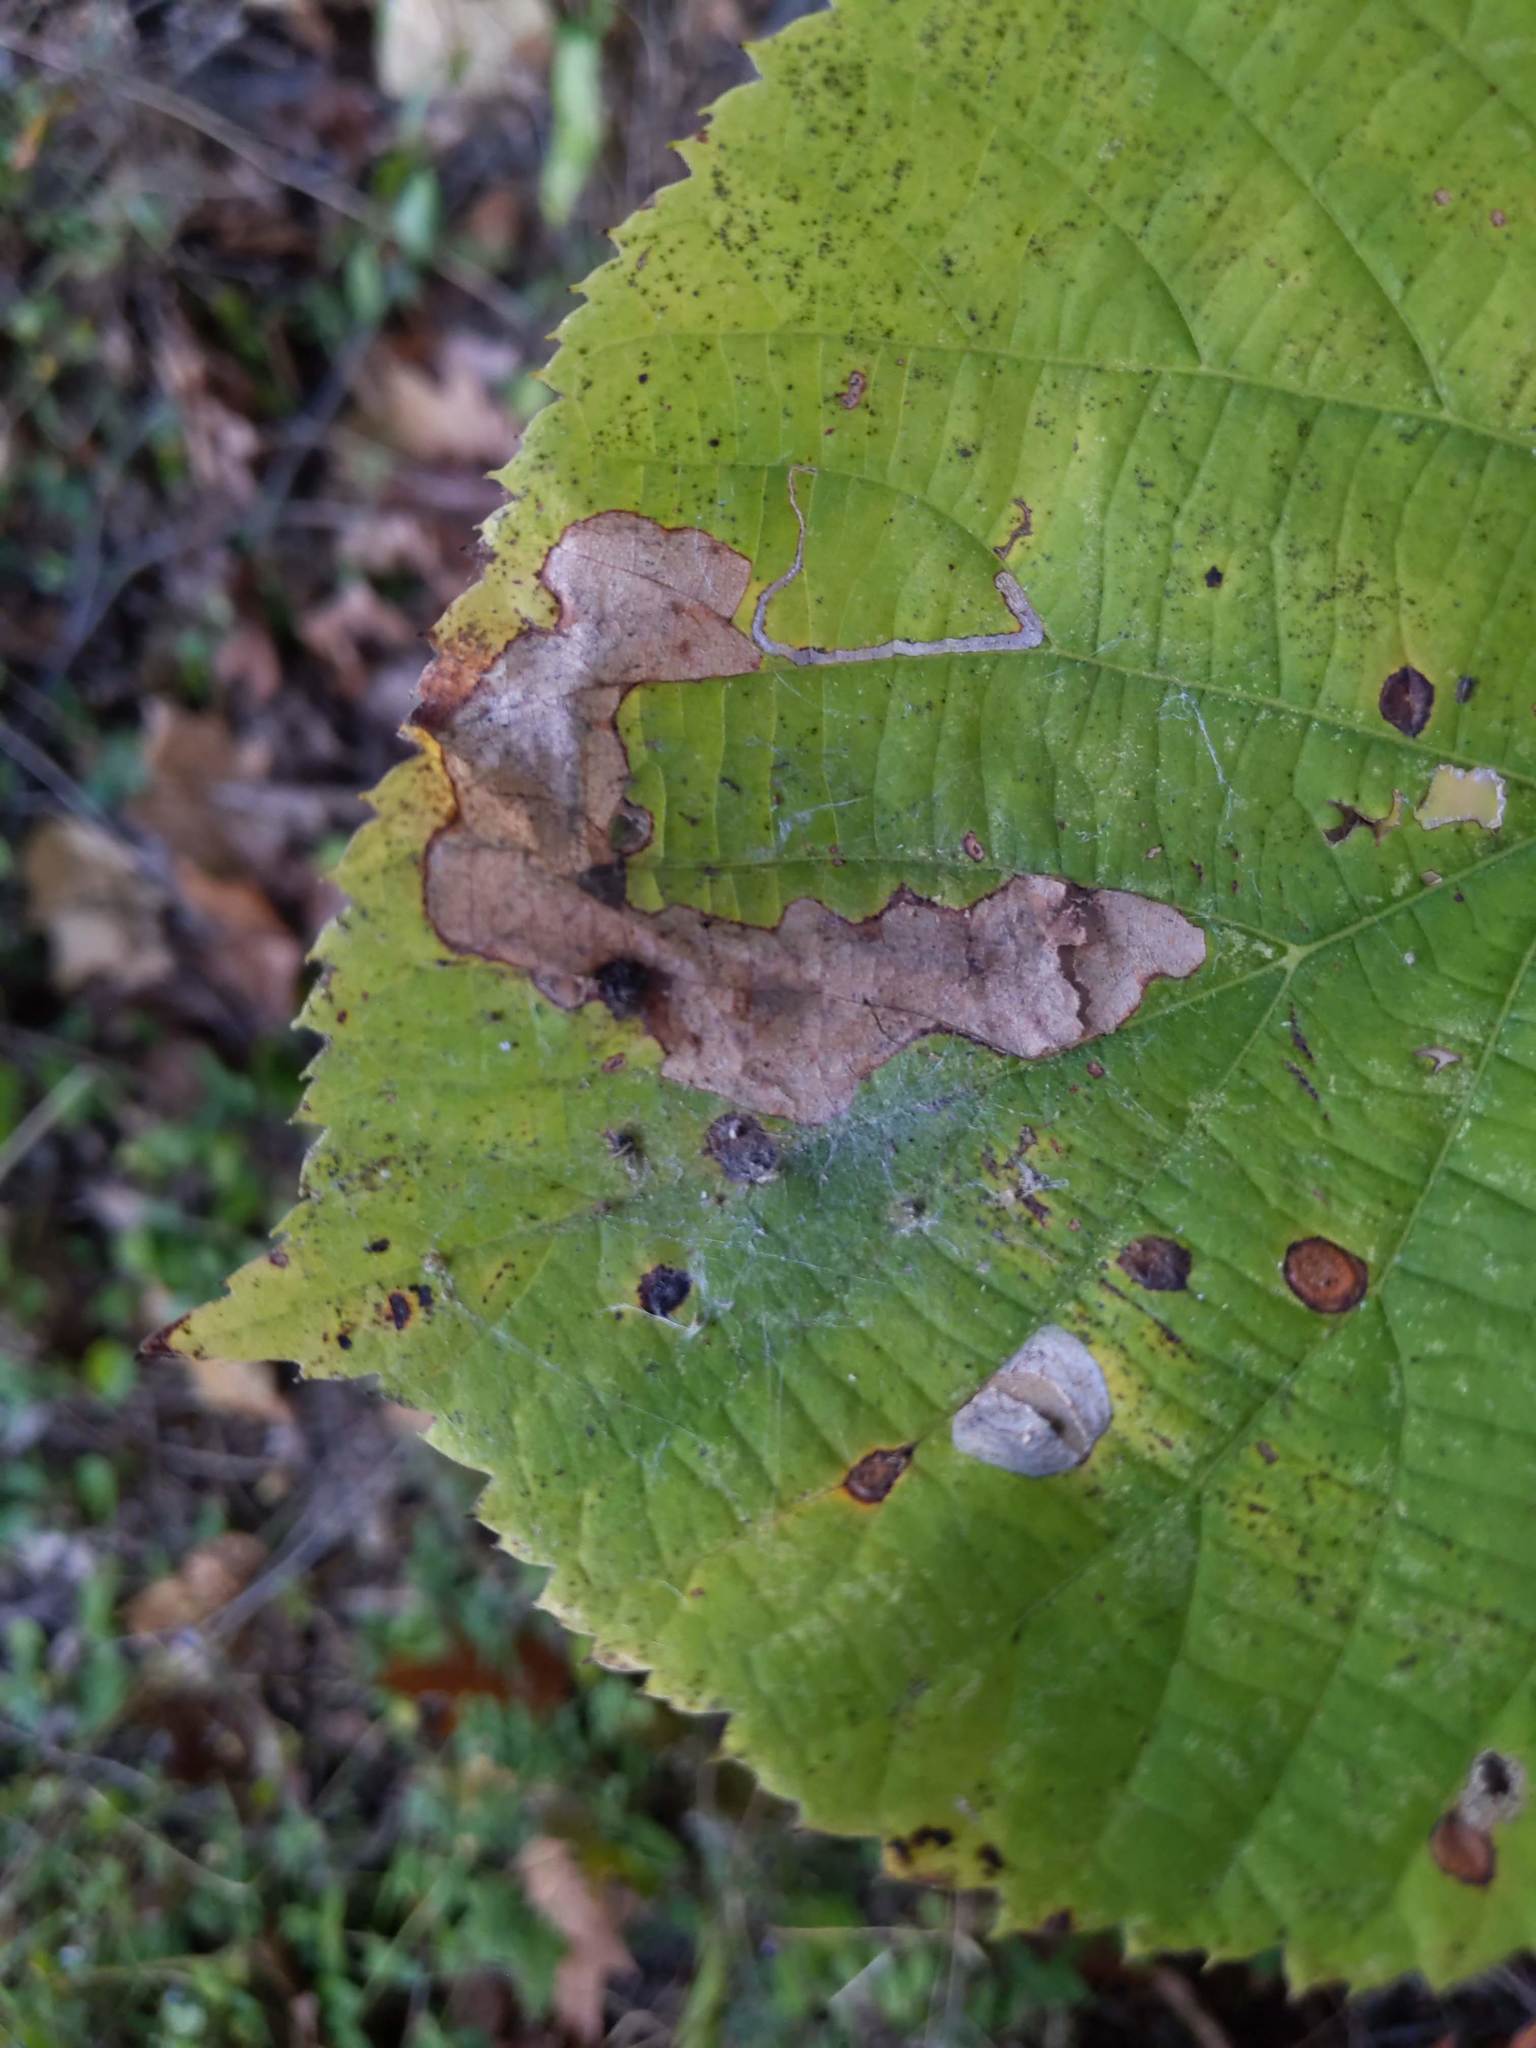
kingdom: Animalia
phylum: Arthropoda
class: Insecta
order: Coleoptera
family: Chrysomelidae
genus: Baliosus
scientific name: Baliosus nervosus
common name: Basswood leaf miner
